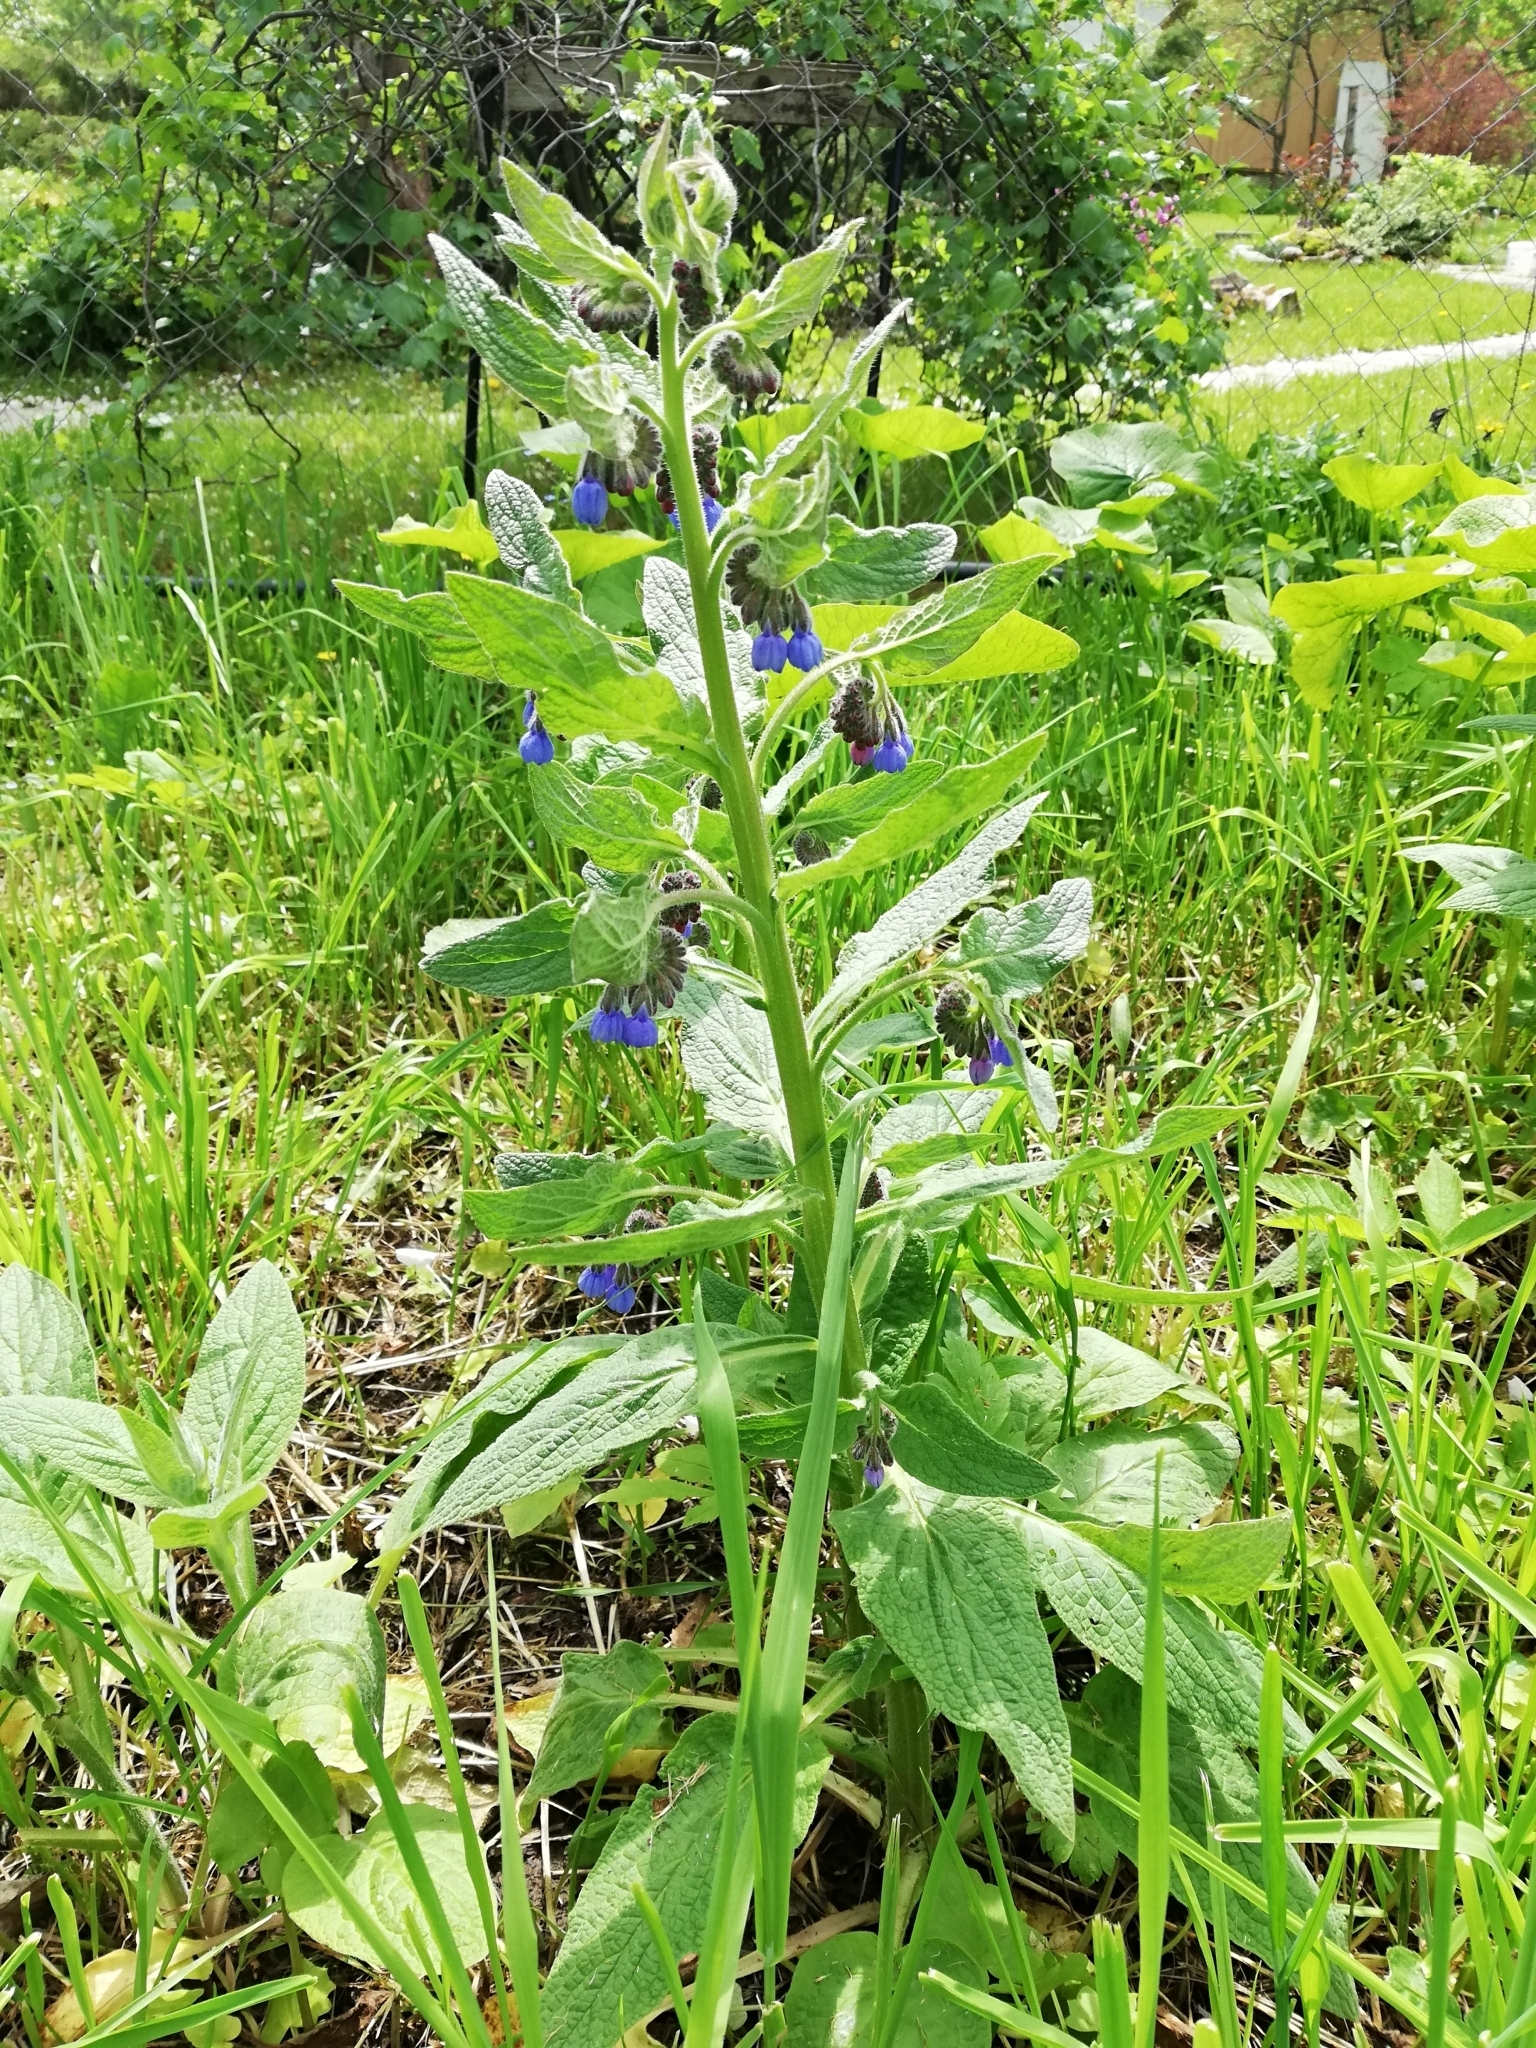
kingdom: Plantae
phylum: Tracheophyta
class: Magnoliopsida
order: Boraginales
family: Boraginaceae
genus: Symphytum
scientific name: Symphytum caucasicum
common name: Caucasian comfrey
